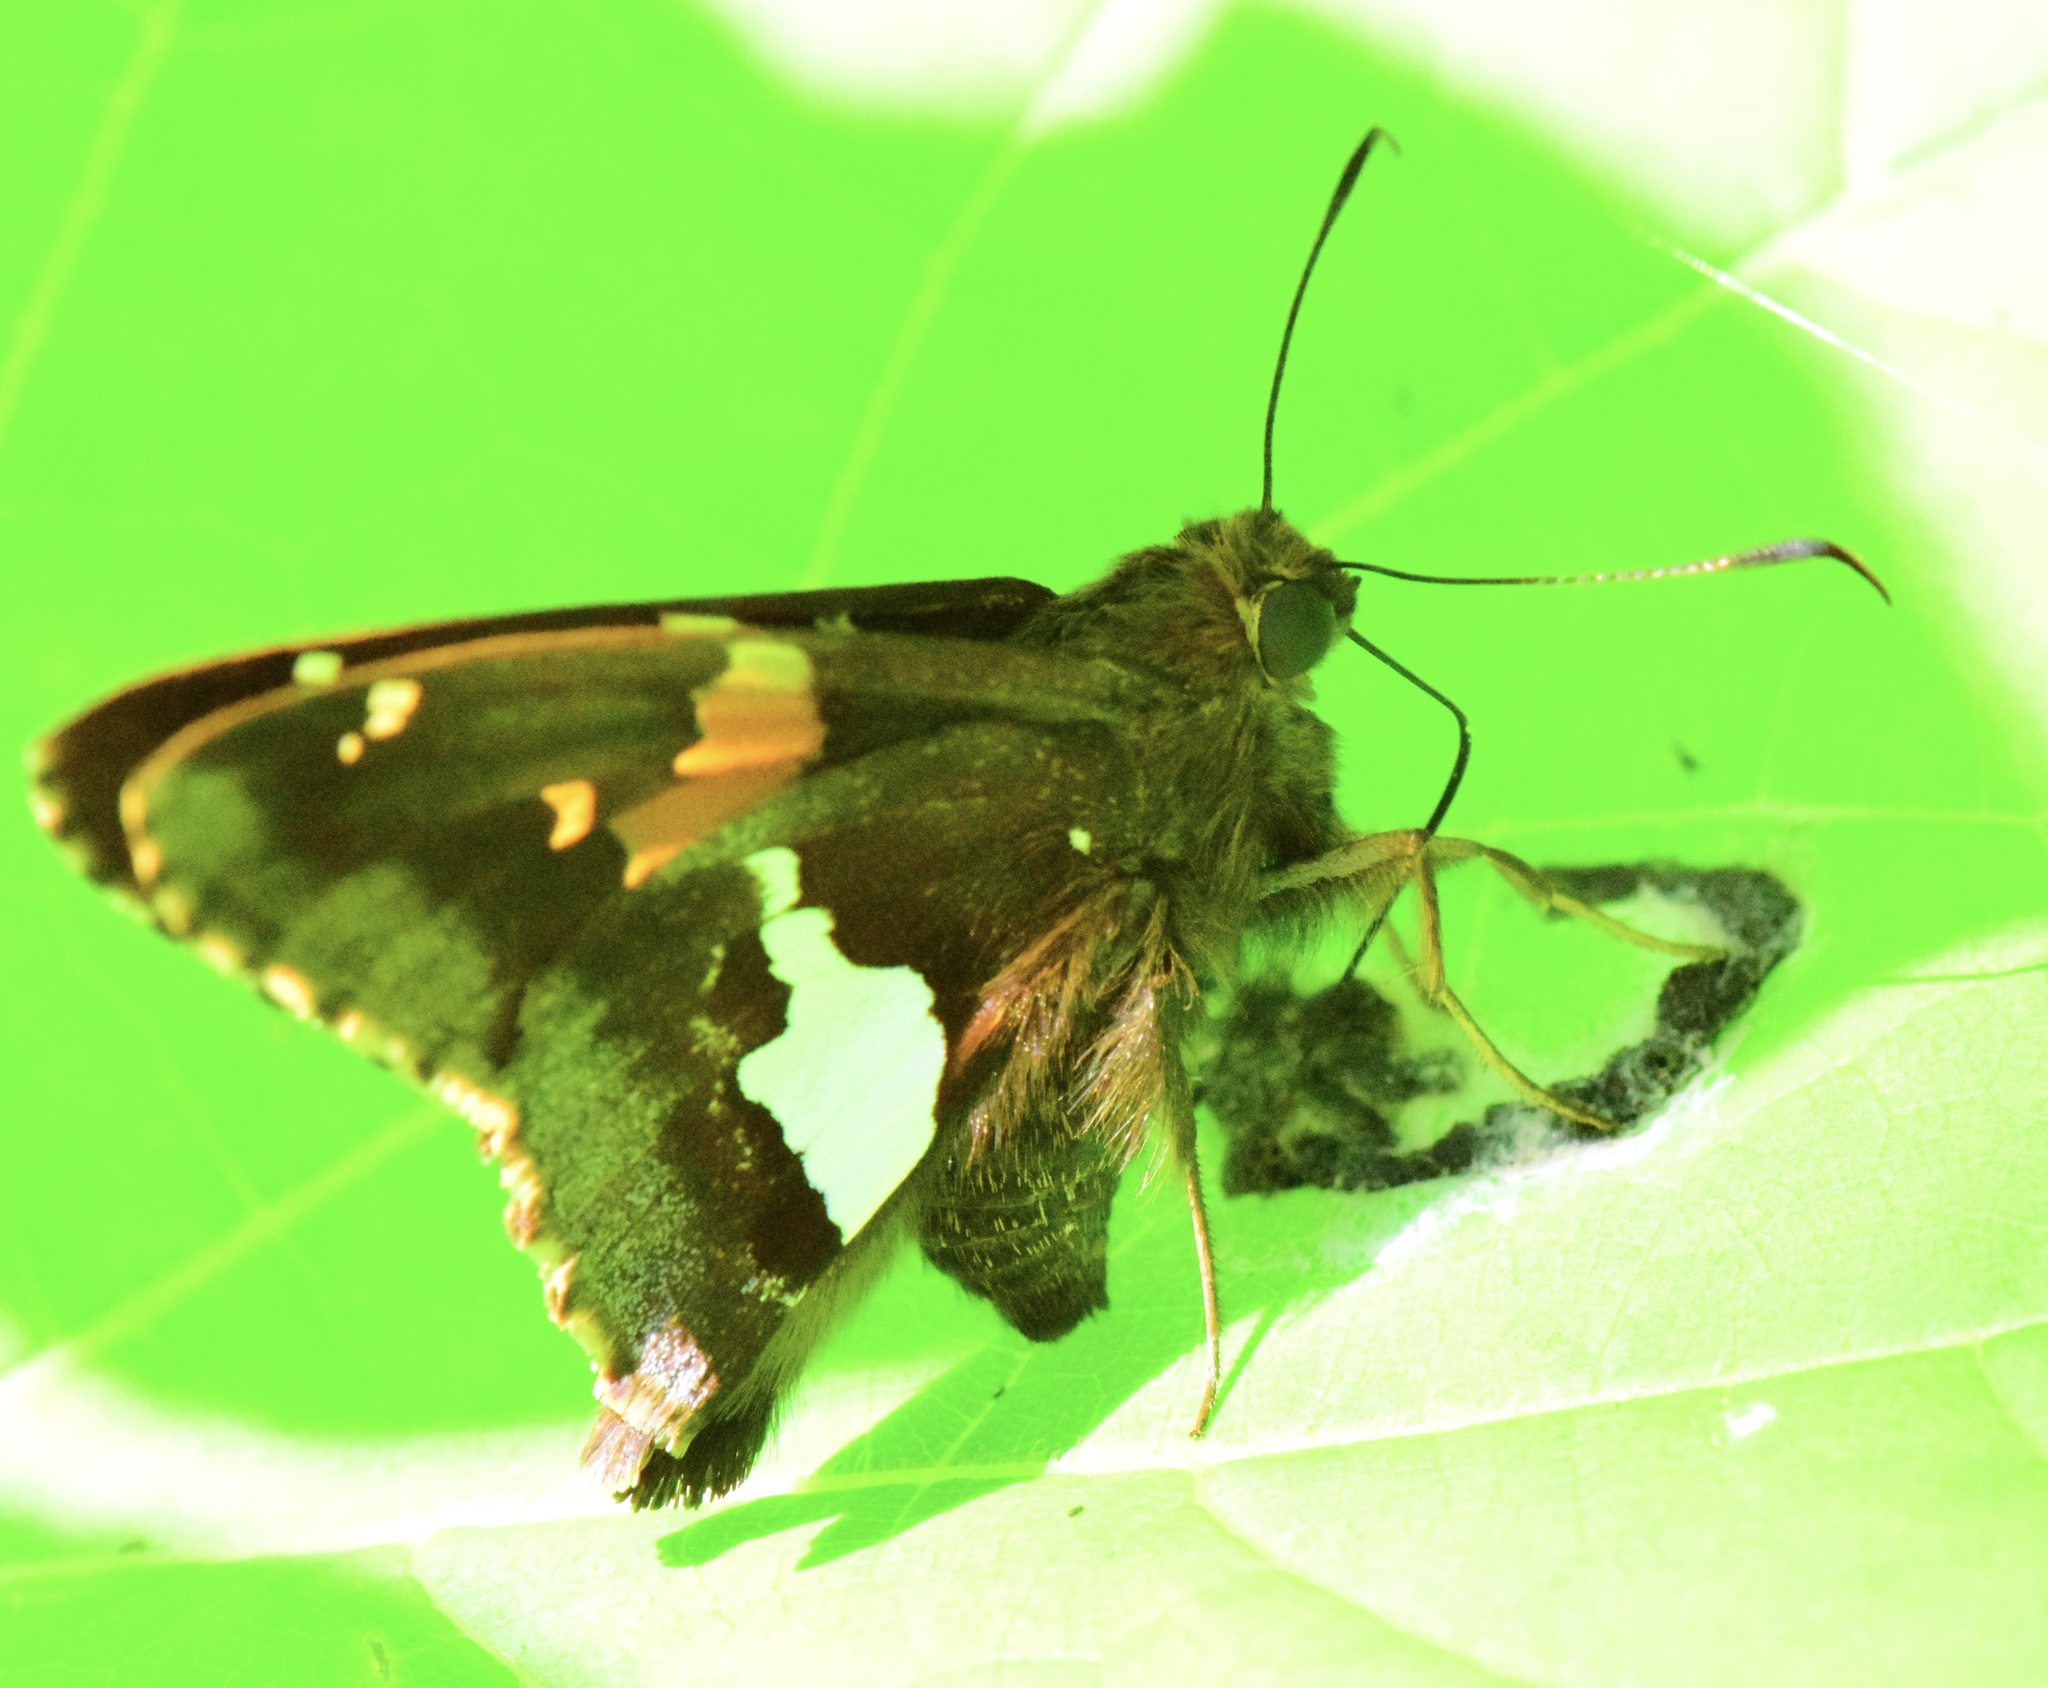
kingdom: Animalia
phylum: Arthropoda
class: Insecta
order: Lepidoptera
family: Hesperiidae
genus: Epargyreus
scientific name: Epargyreus clarus
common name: Silver-spotted skipper
